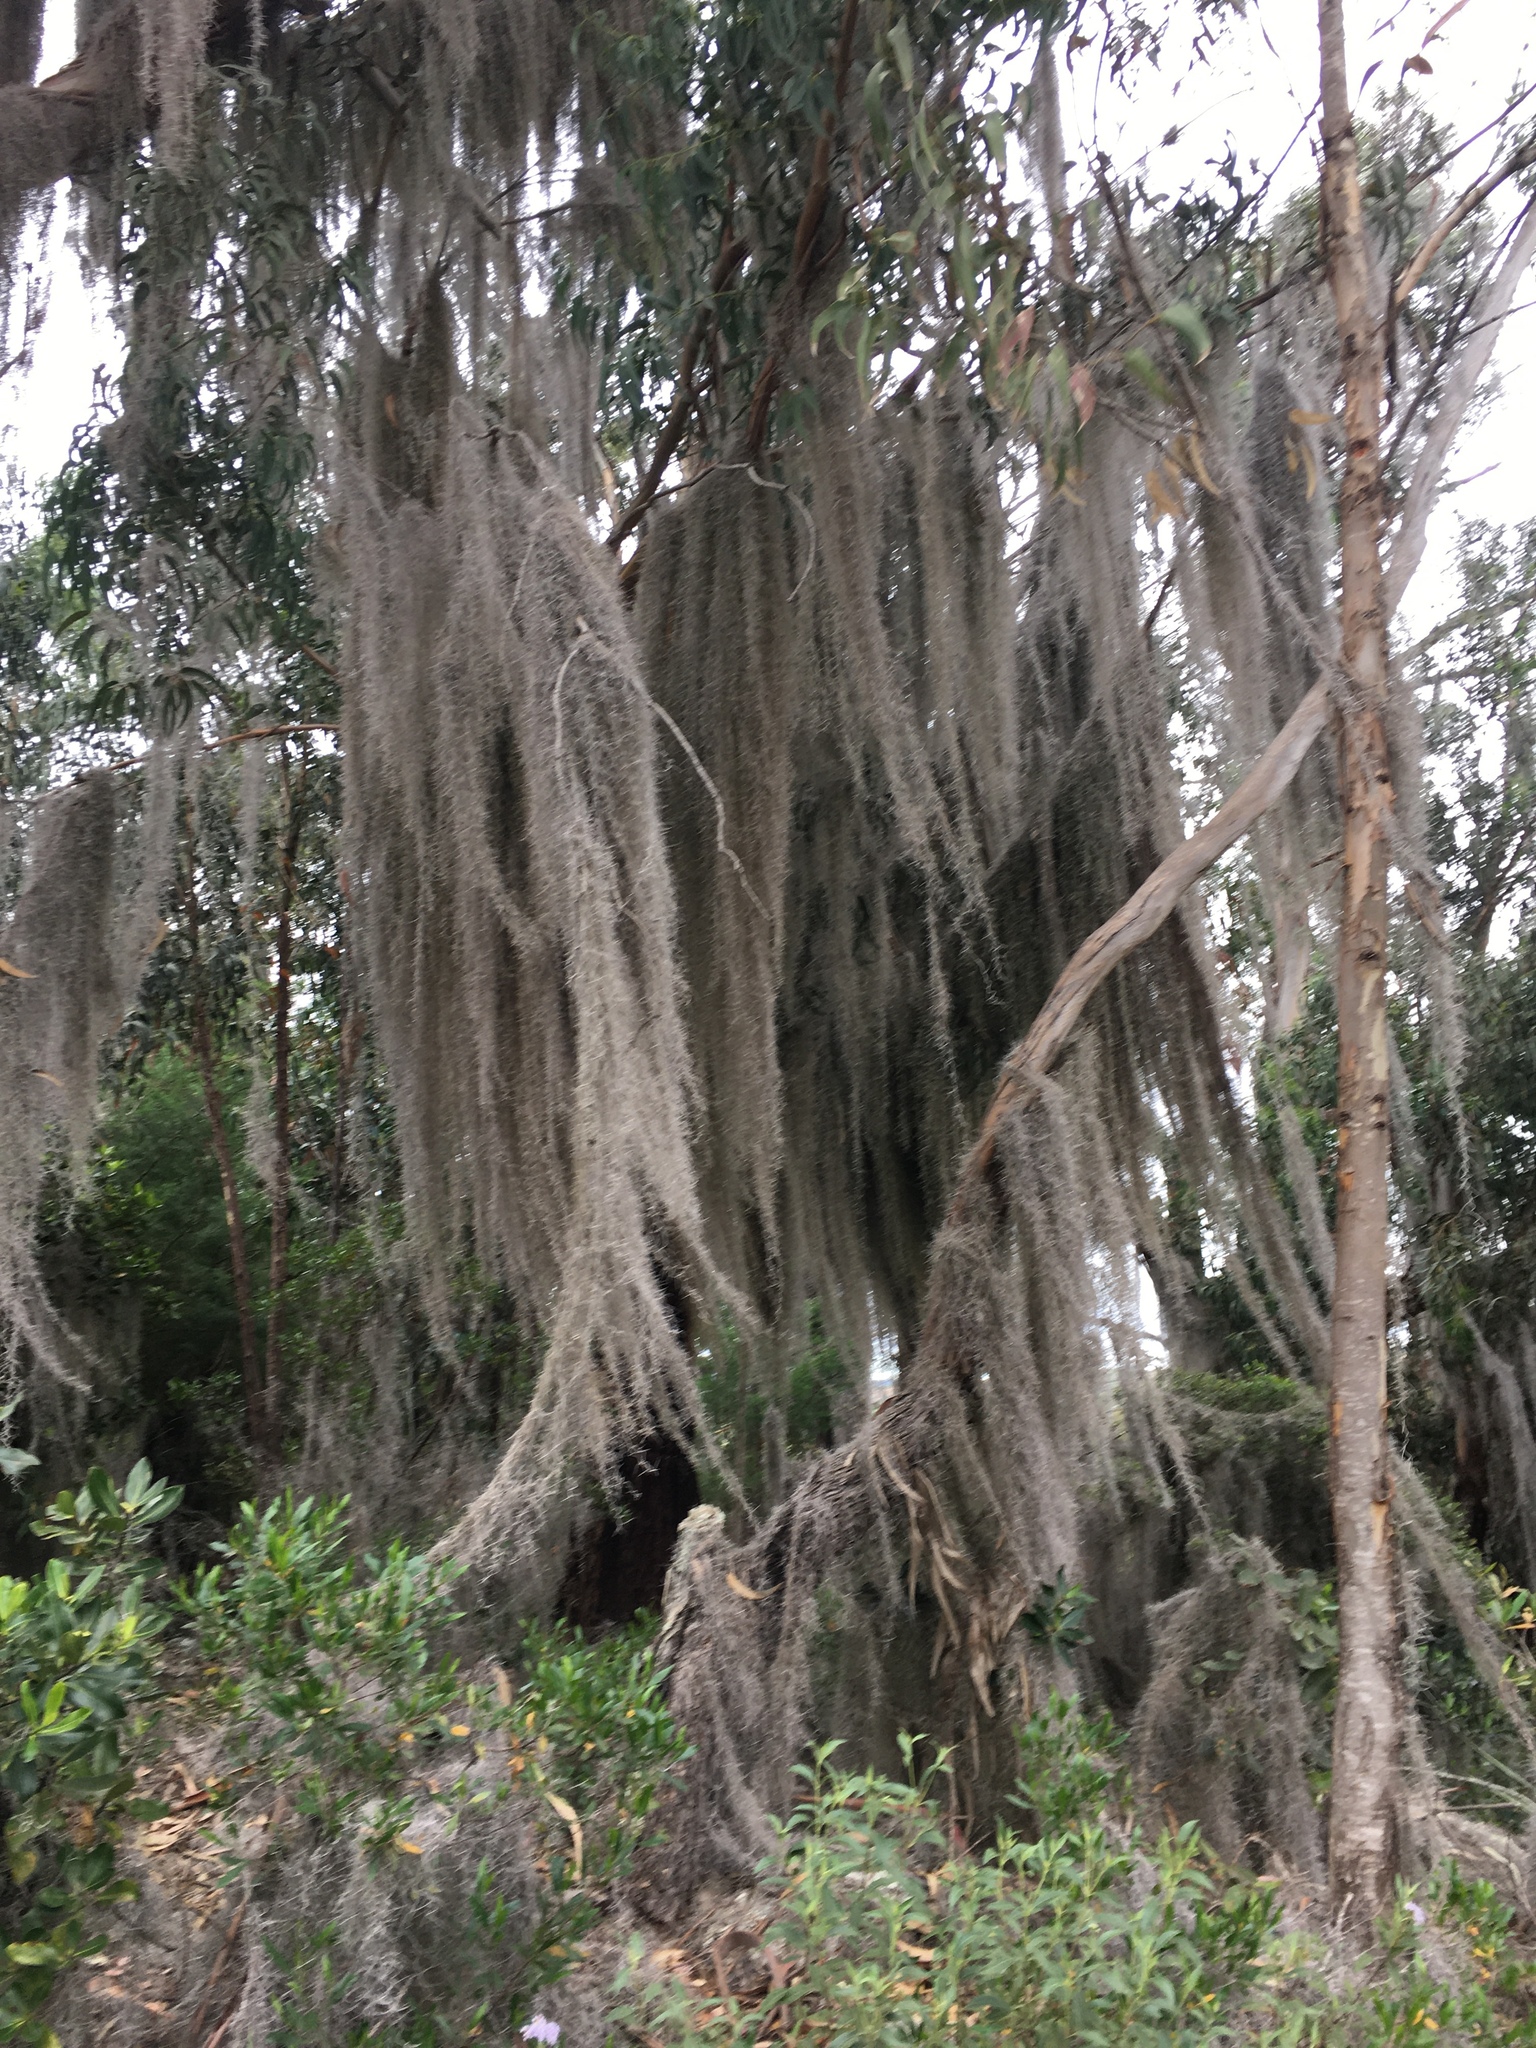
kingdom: Plantae
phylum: Tracheophyta
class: Liliopsida
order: Poales
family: Bromeliaceae
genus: Tillandsia
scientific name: Tillandsia usneoides
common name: Spanish moss
